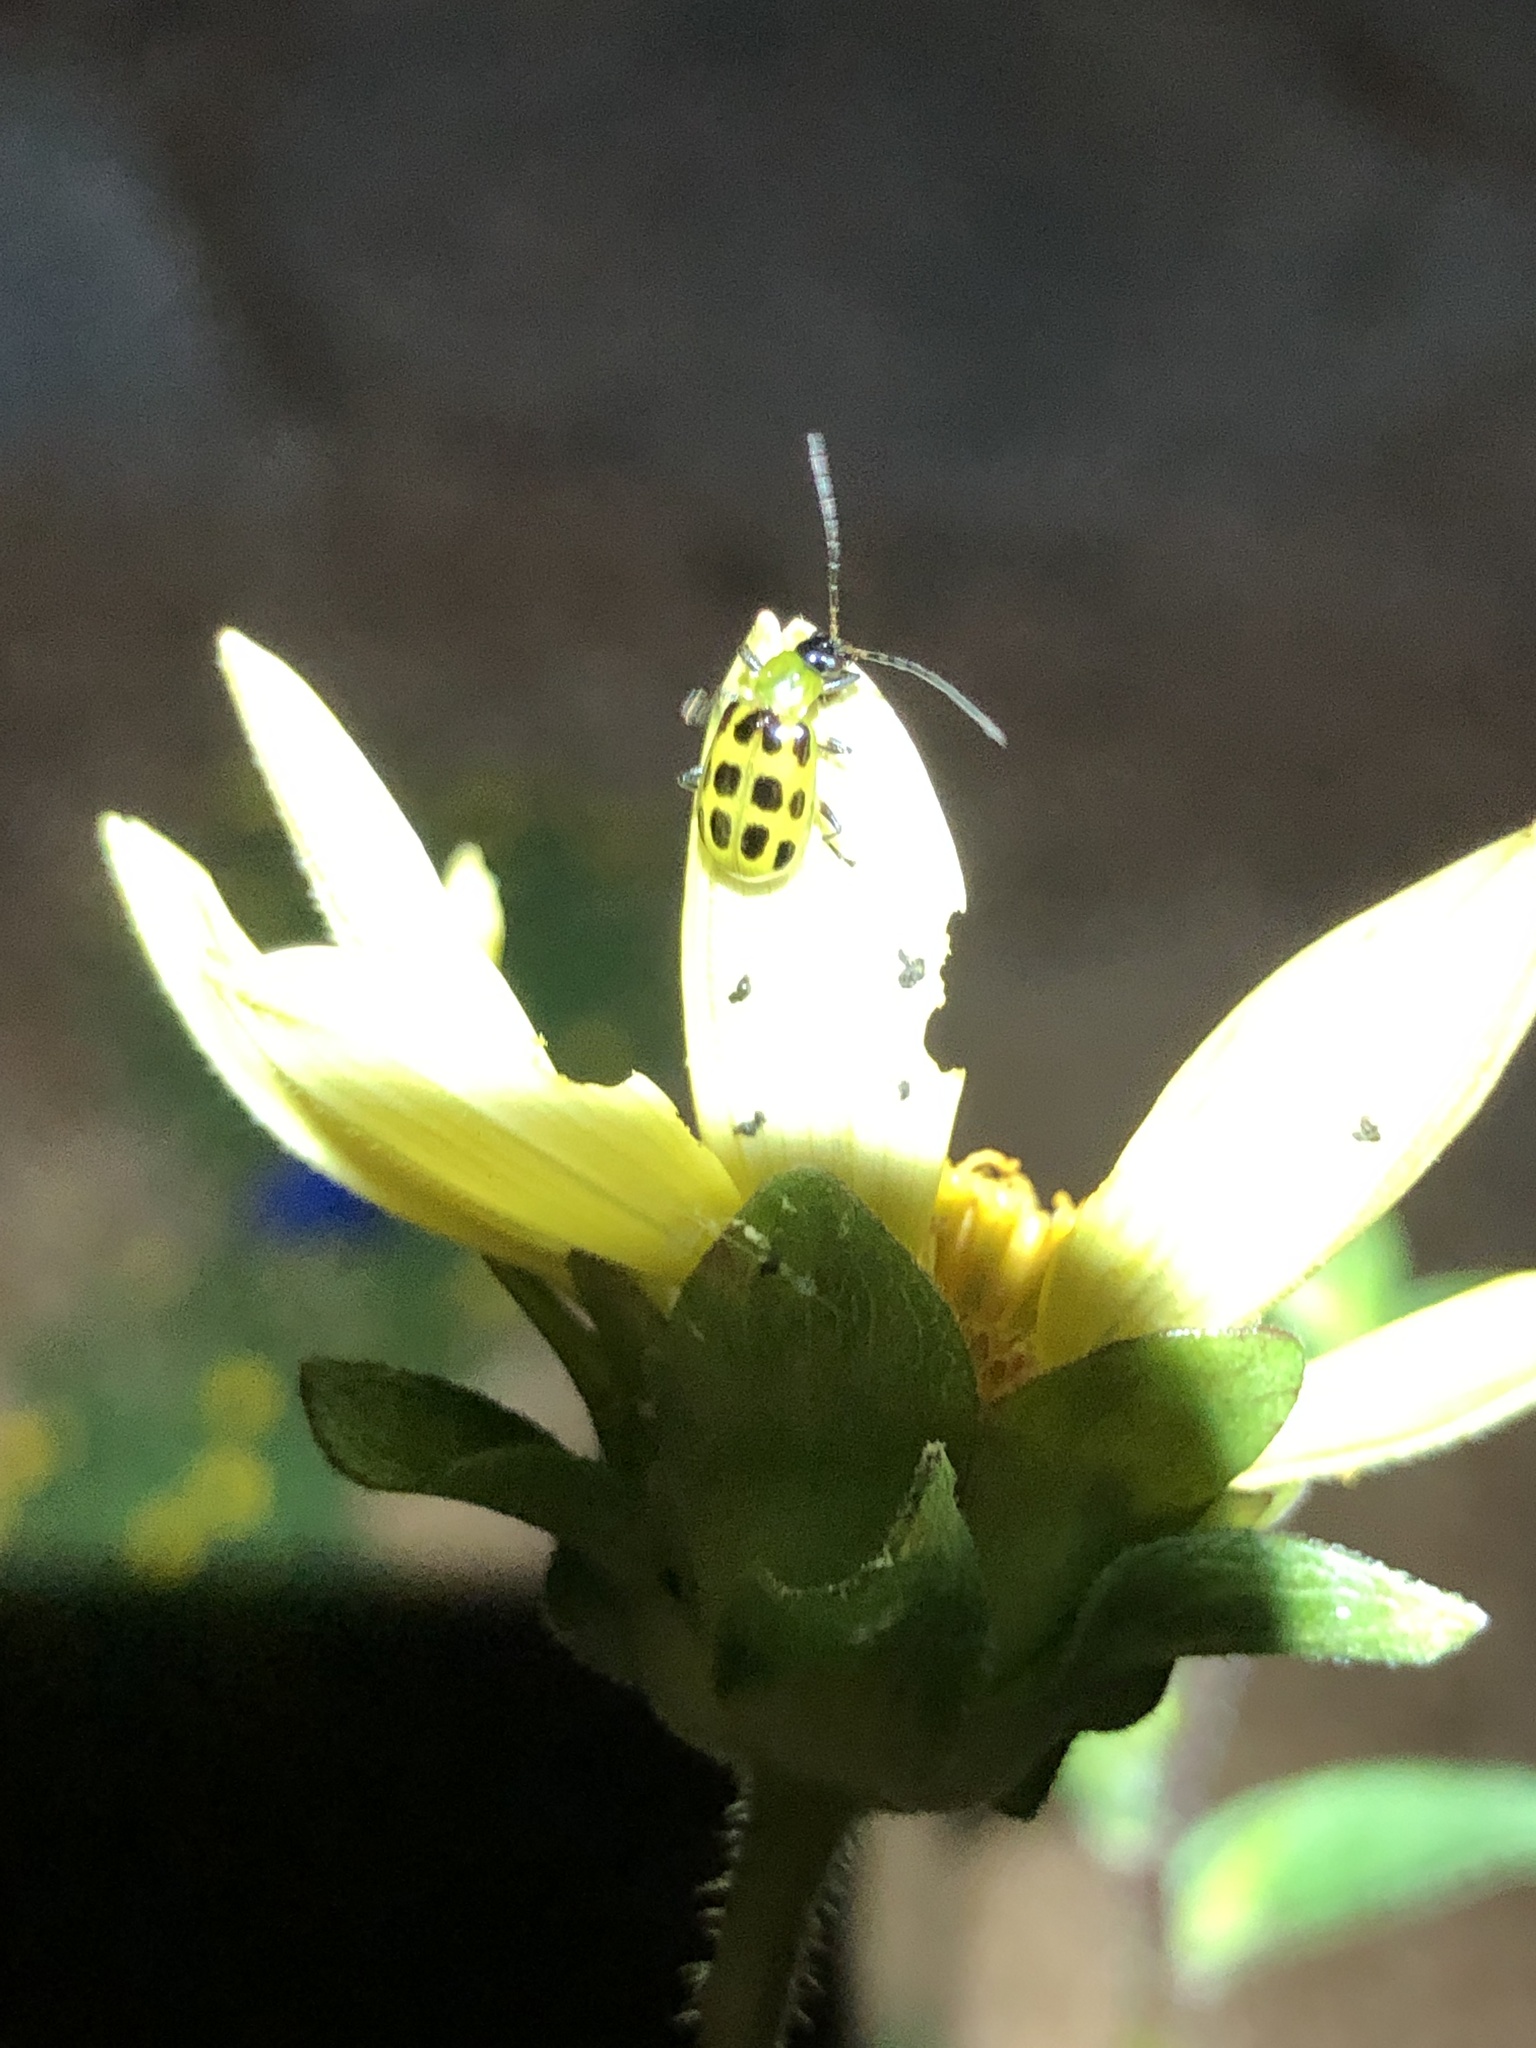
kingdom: Animalia
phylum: Arthropoda
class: Insecta
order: Coleoptera
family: Chrysomelidae
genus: Diabrotica
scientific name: Diabrotica undecimpunctata
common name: Spotted cucumber beetle
